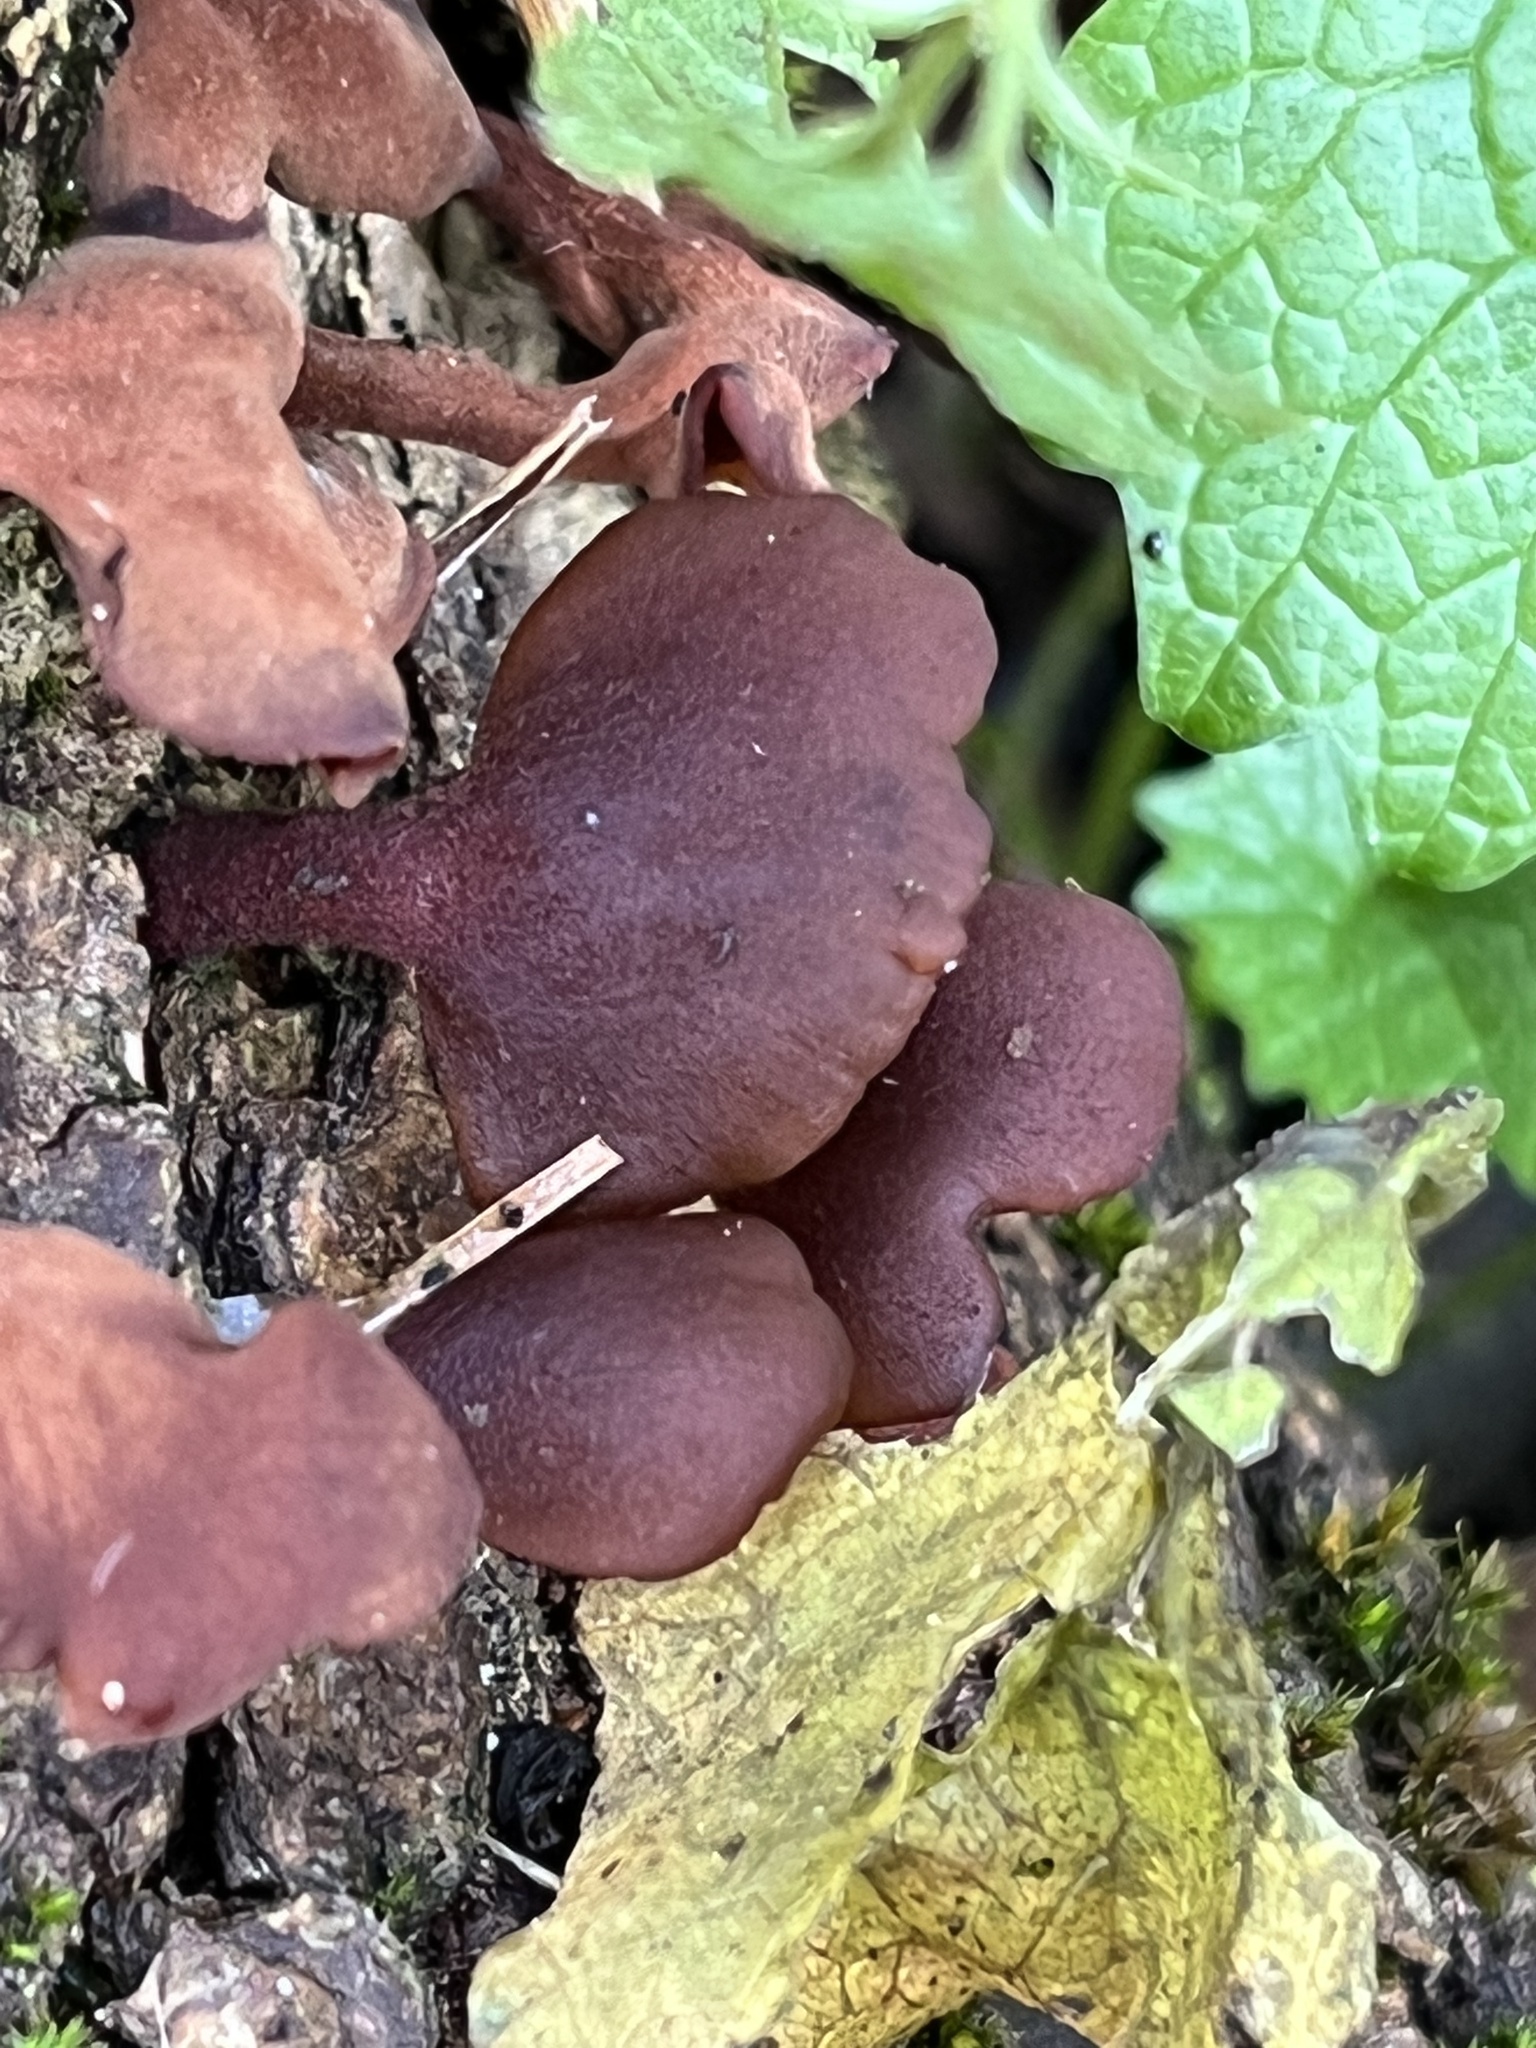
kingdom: Fungi
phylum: Basidiomycota
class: Dacrymycetes
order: Dacrymycetales
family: Dacrymycetaceae
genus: Dacryopinax
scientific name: Dacryopinax elegans
